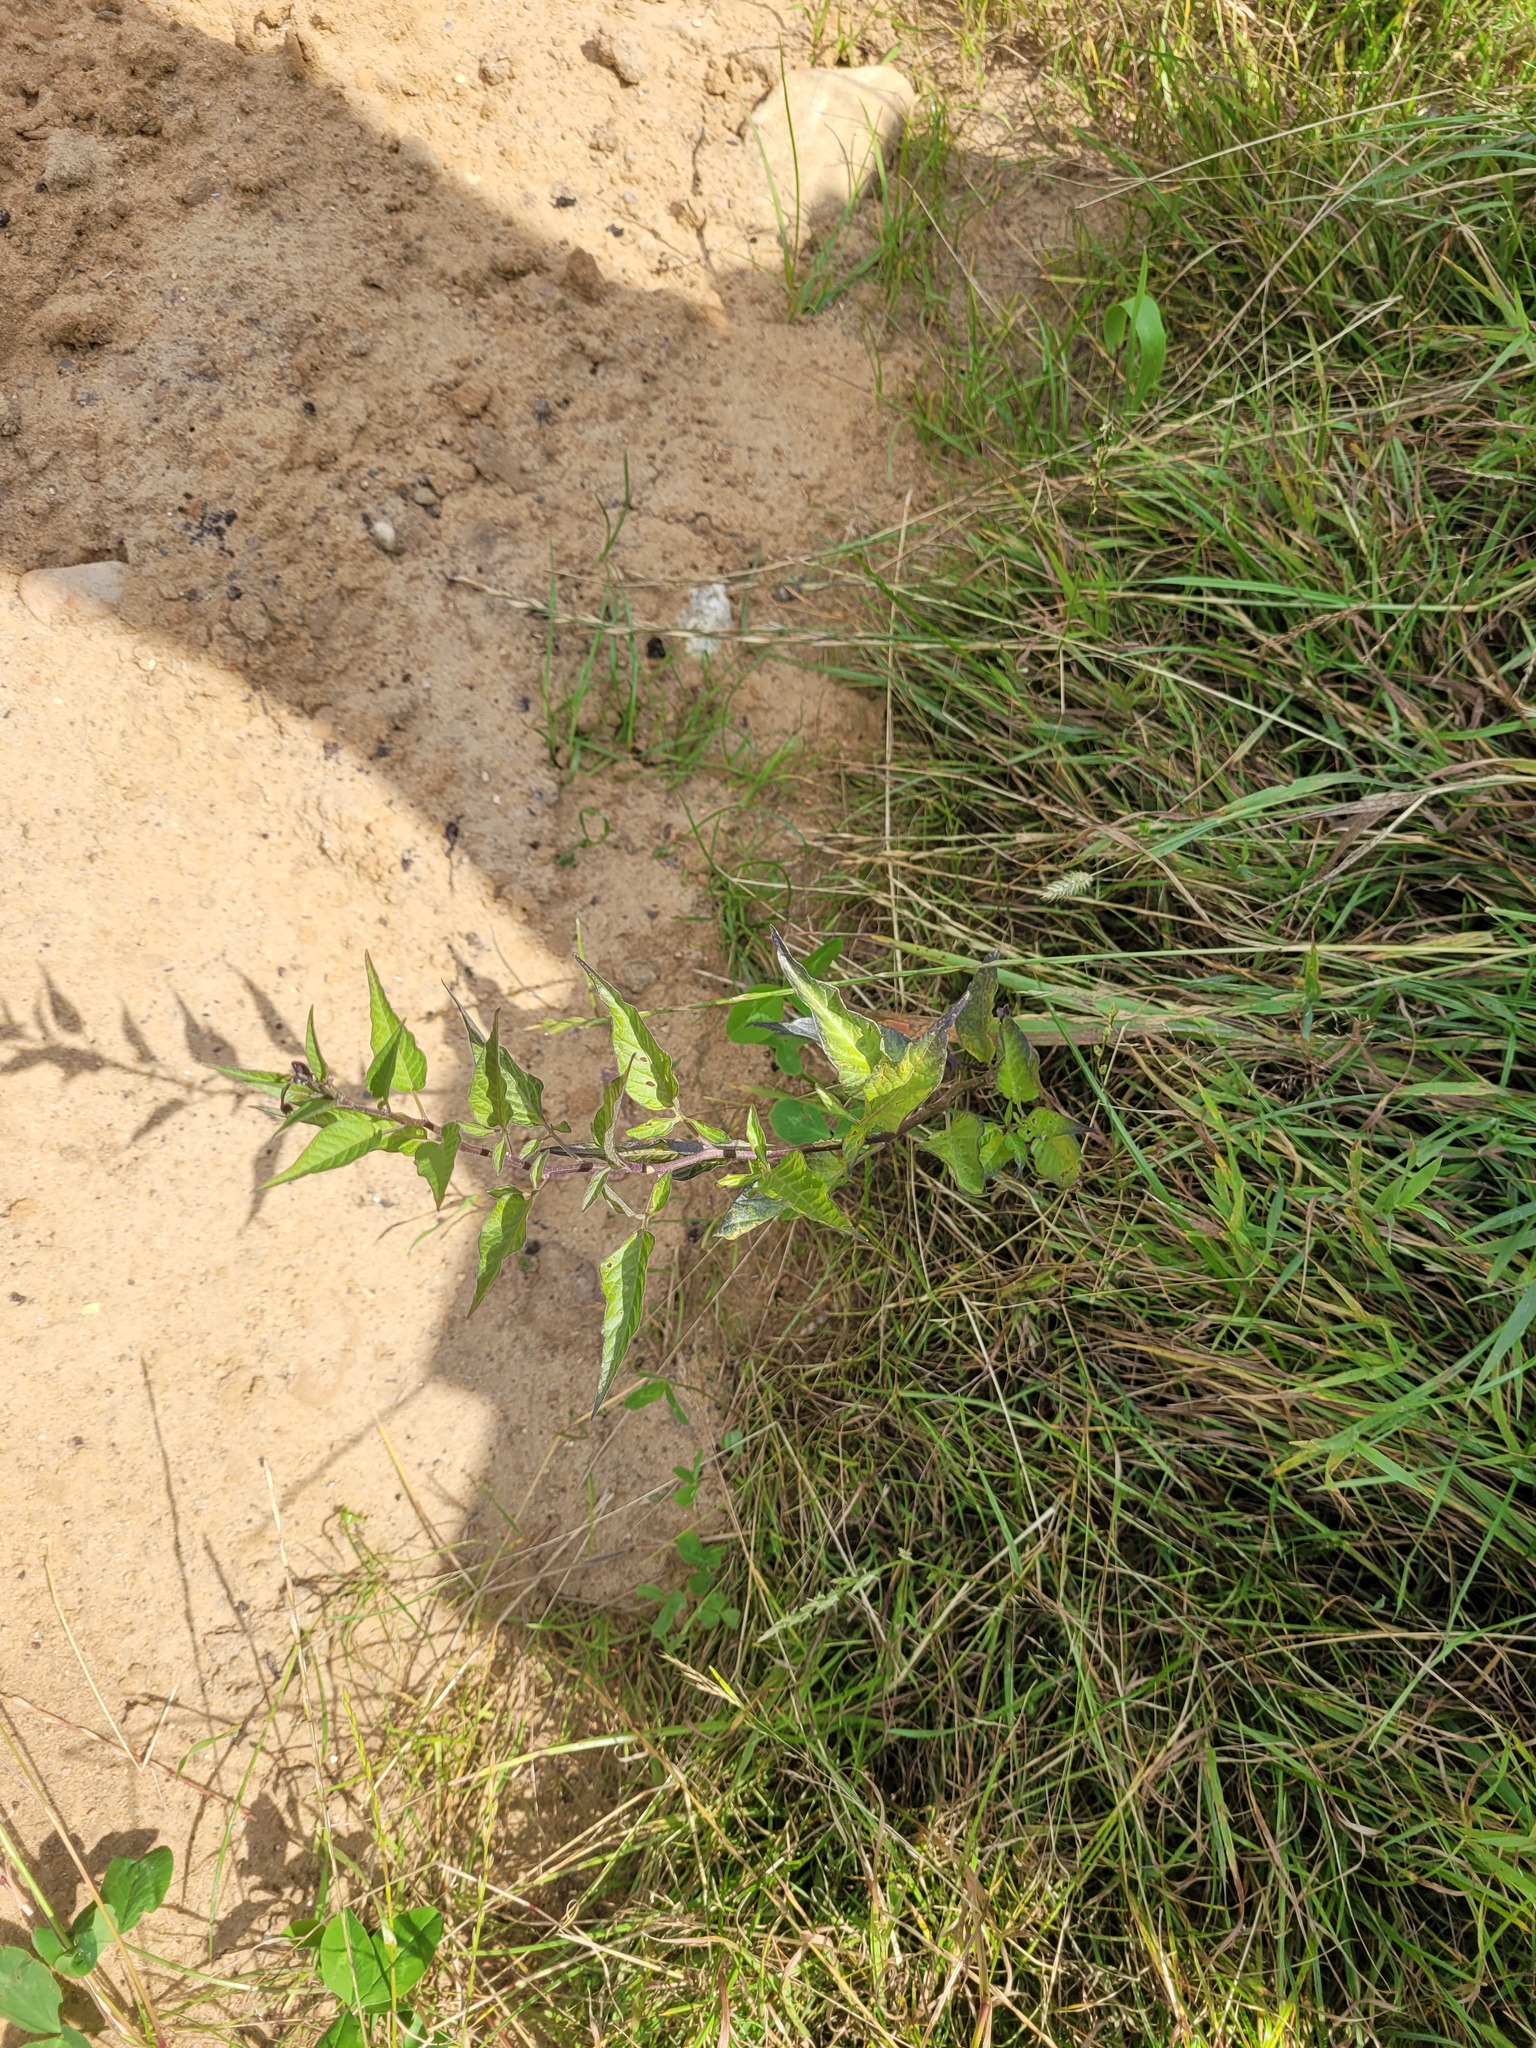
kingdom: Plantae
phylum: Tracheophyta
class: Magnoliopsida
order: Solanales
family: Solanaceae
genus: Solanum
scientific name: Solanum dulcamara
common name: Climbing nightshade
